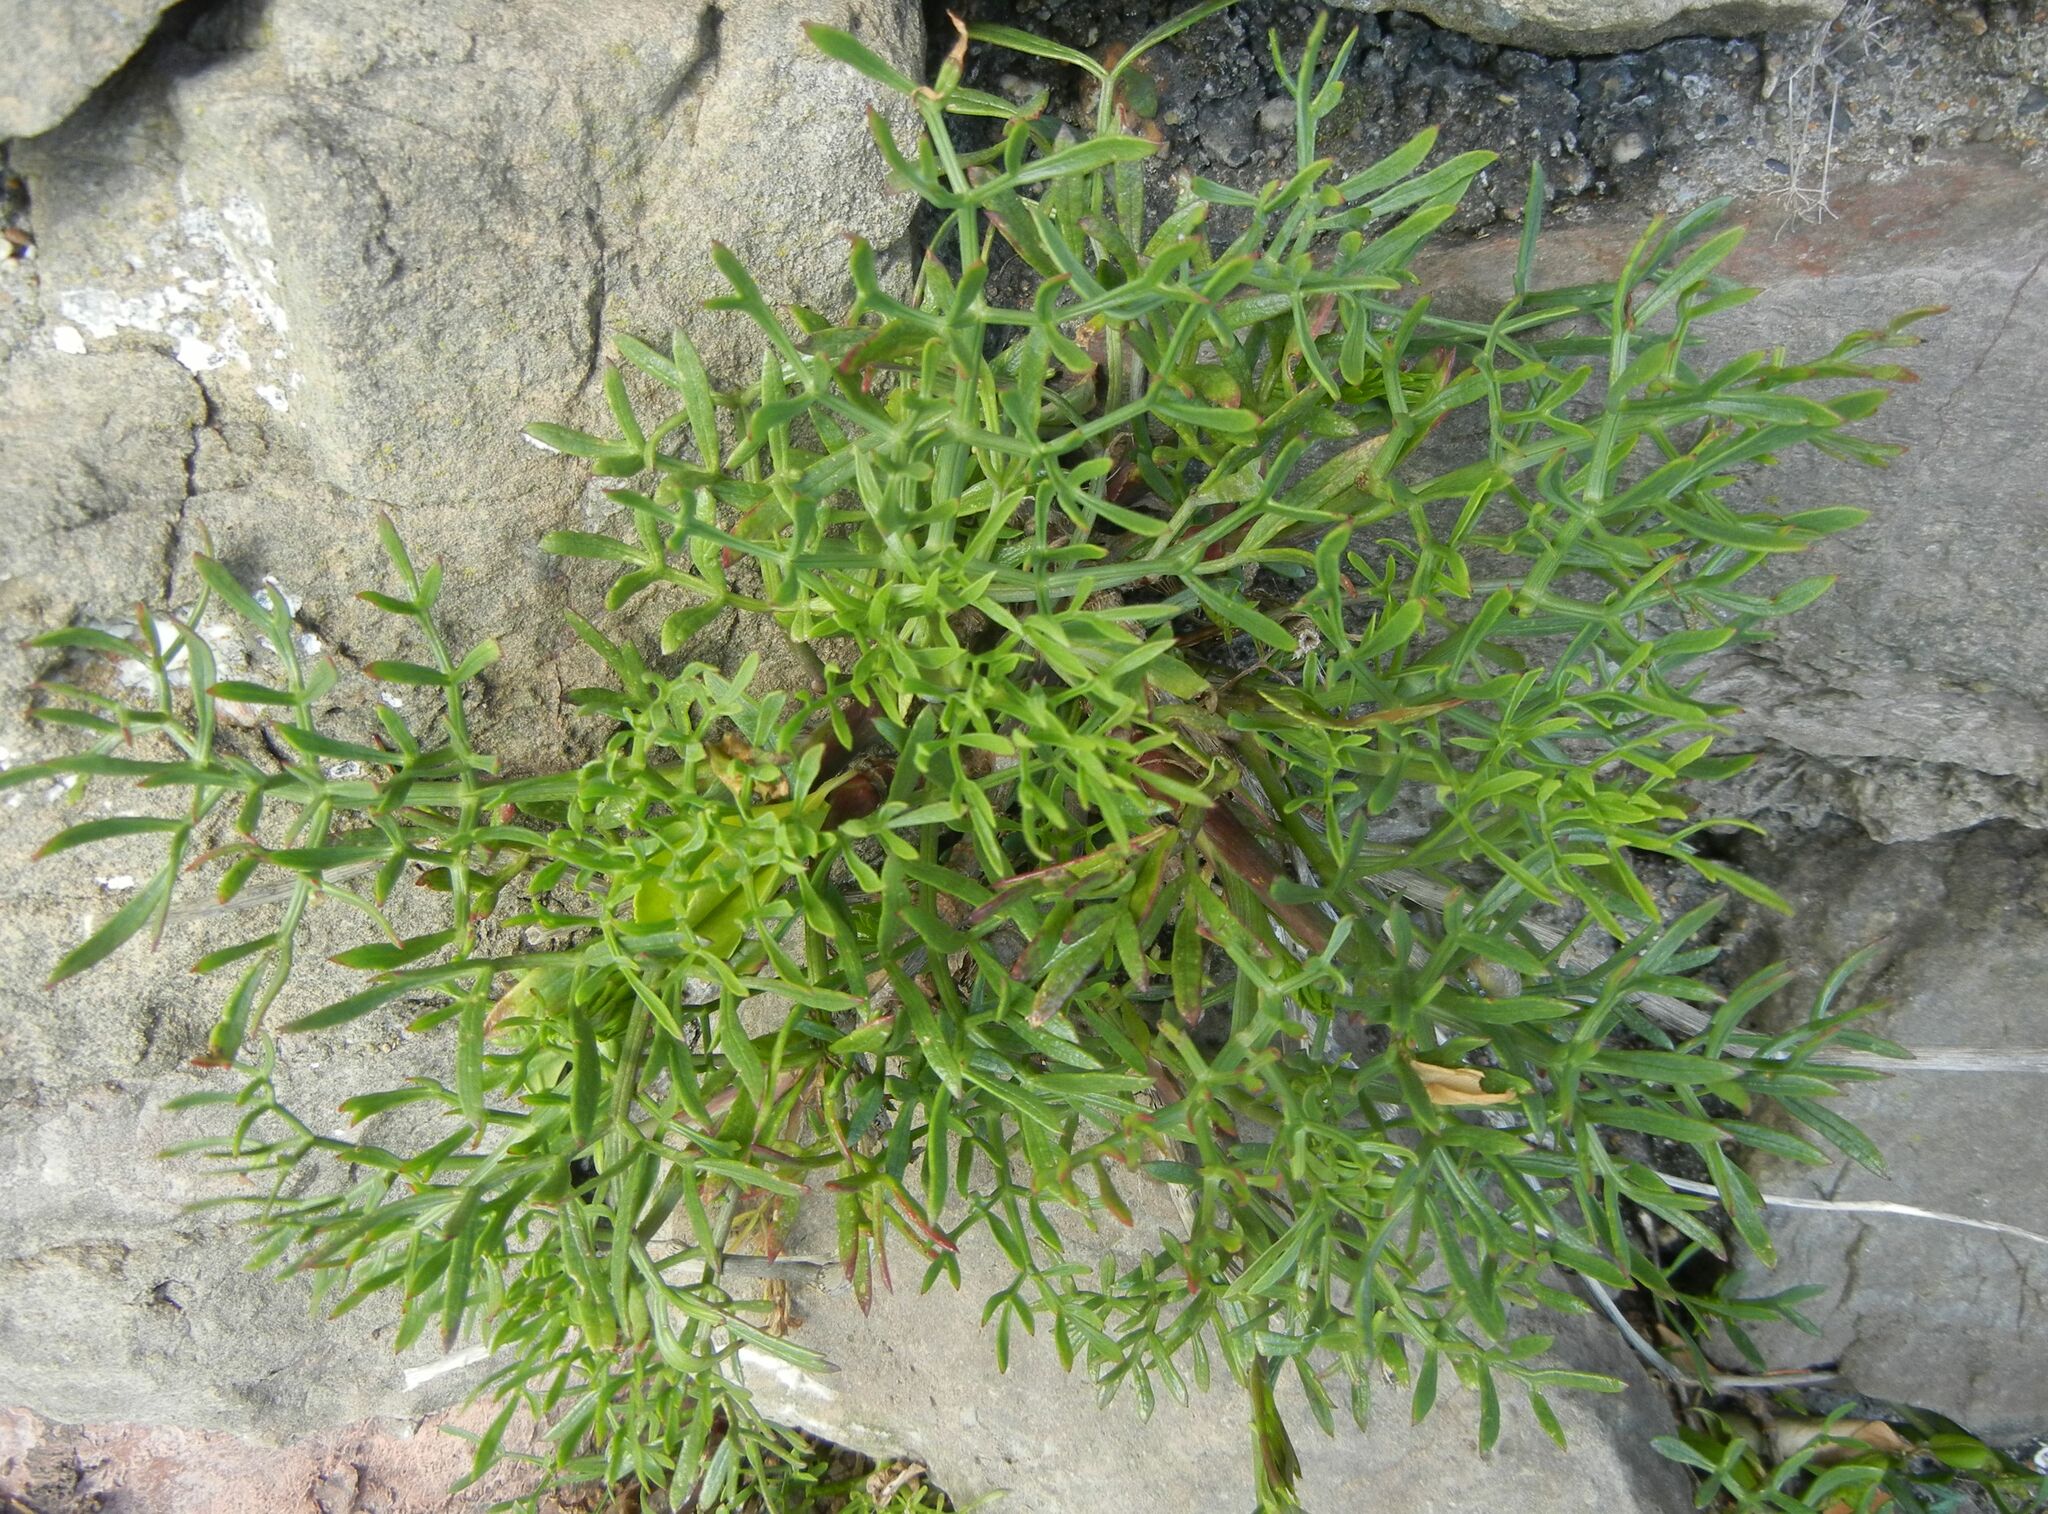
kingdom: Plantae
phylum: Tracheophyta
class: Magnoliopsida
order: Apiales
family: Apiaceae
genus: Crithmum
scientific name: Crithmum maritimum
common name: Rock samphire
